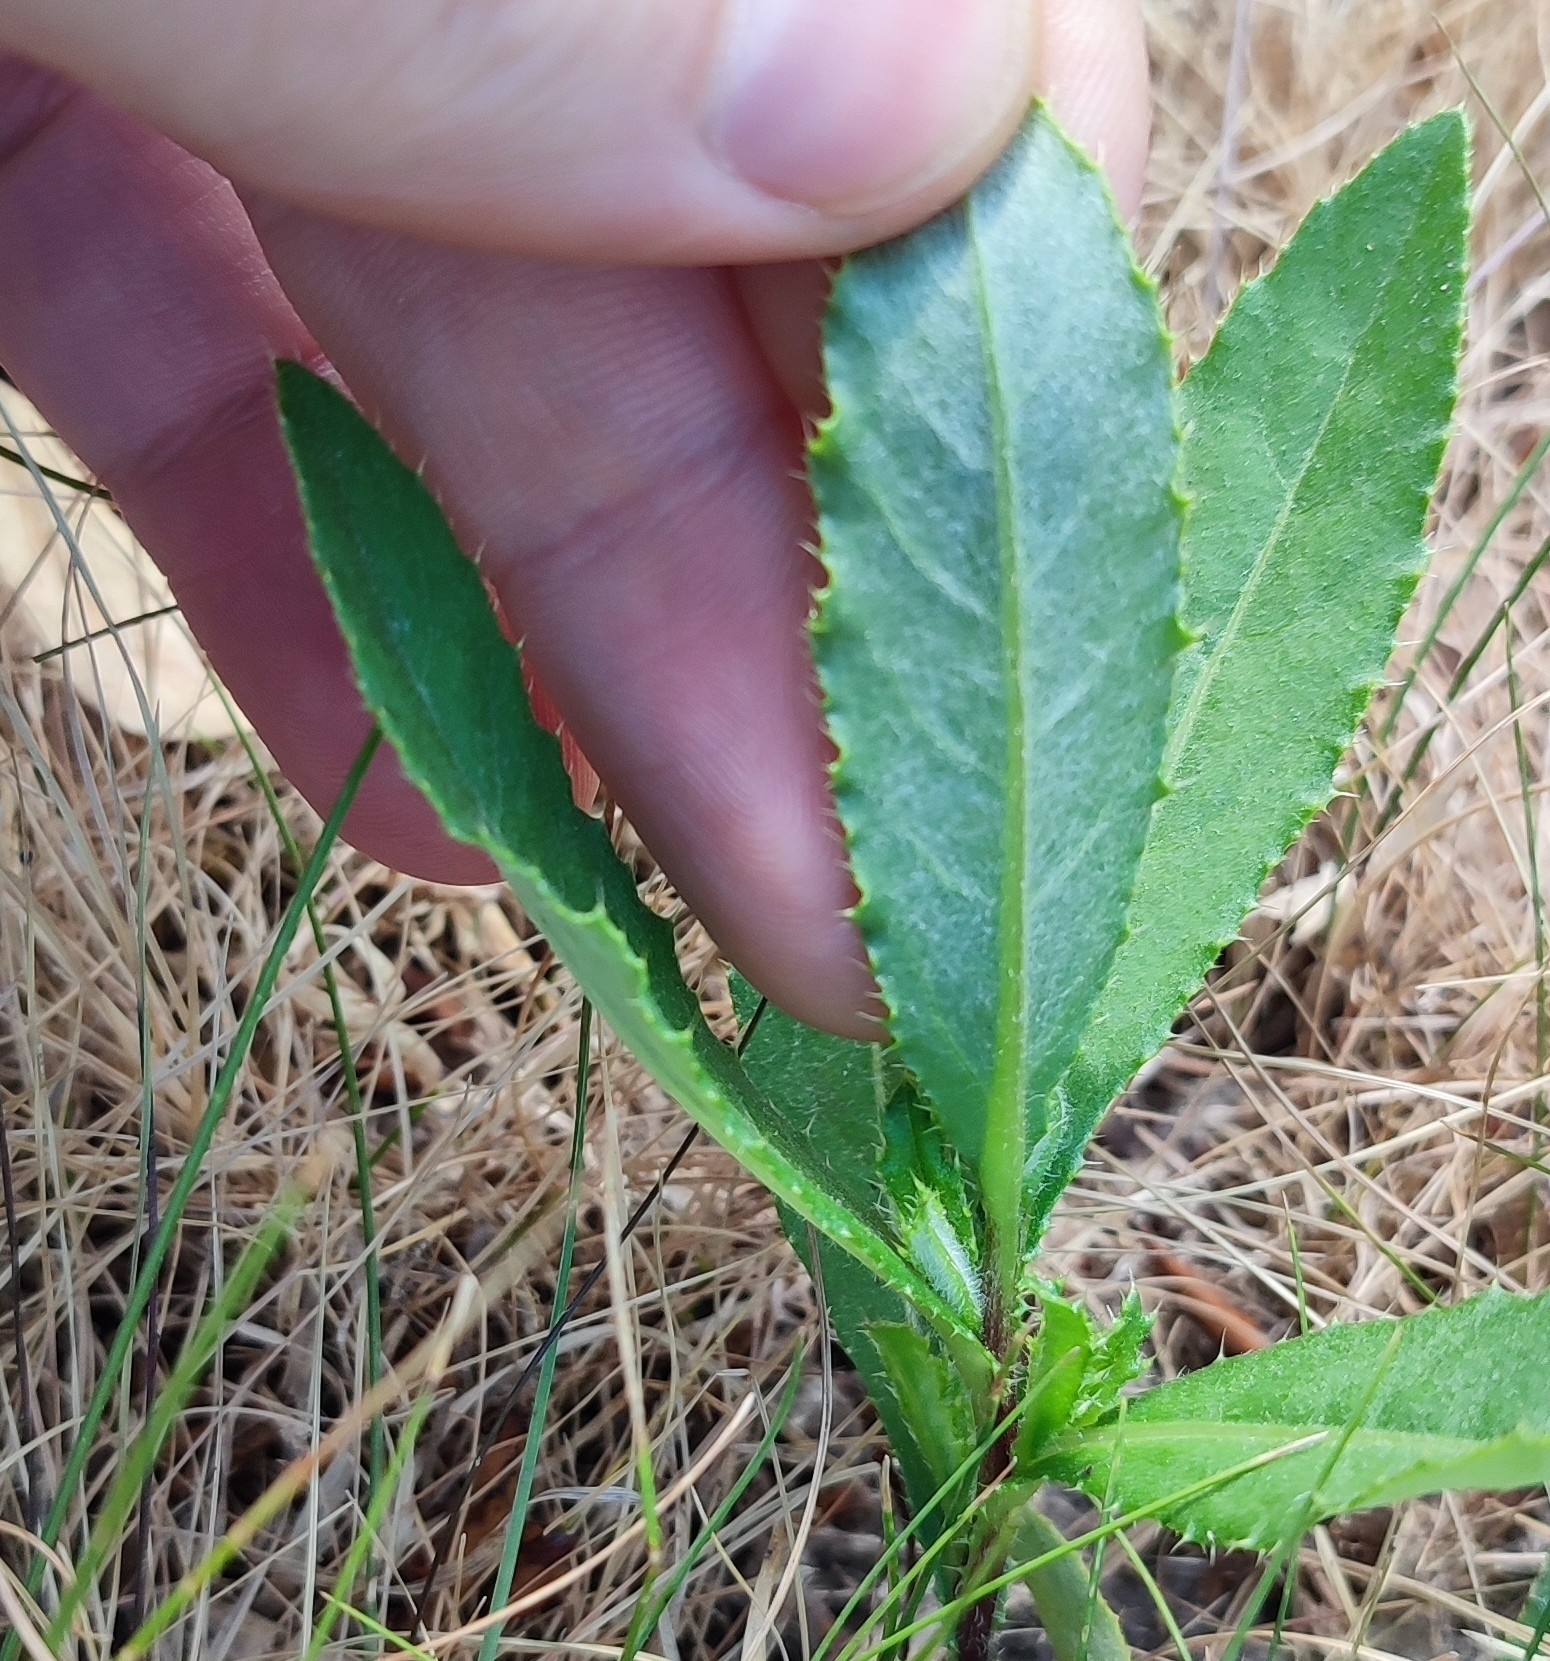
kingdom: Plantae
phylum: Tracheophyta
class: Magnoliopsida
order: Asterales
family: Asteraceae
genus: Cirsium
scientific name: Cirsium arvense
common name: Creeping thistle
